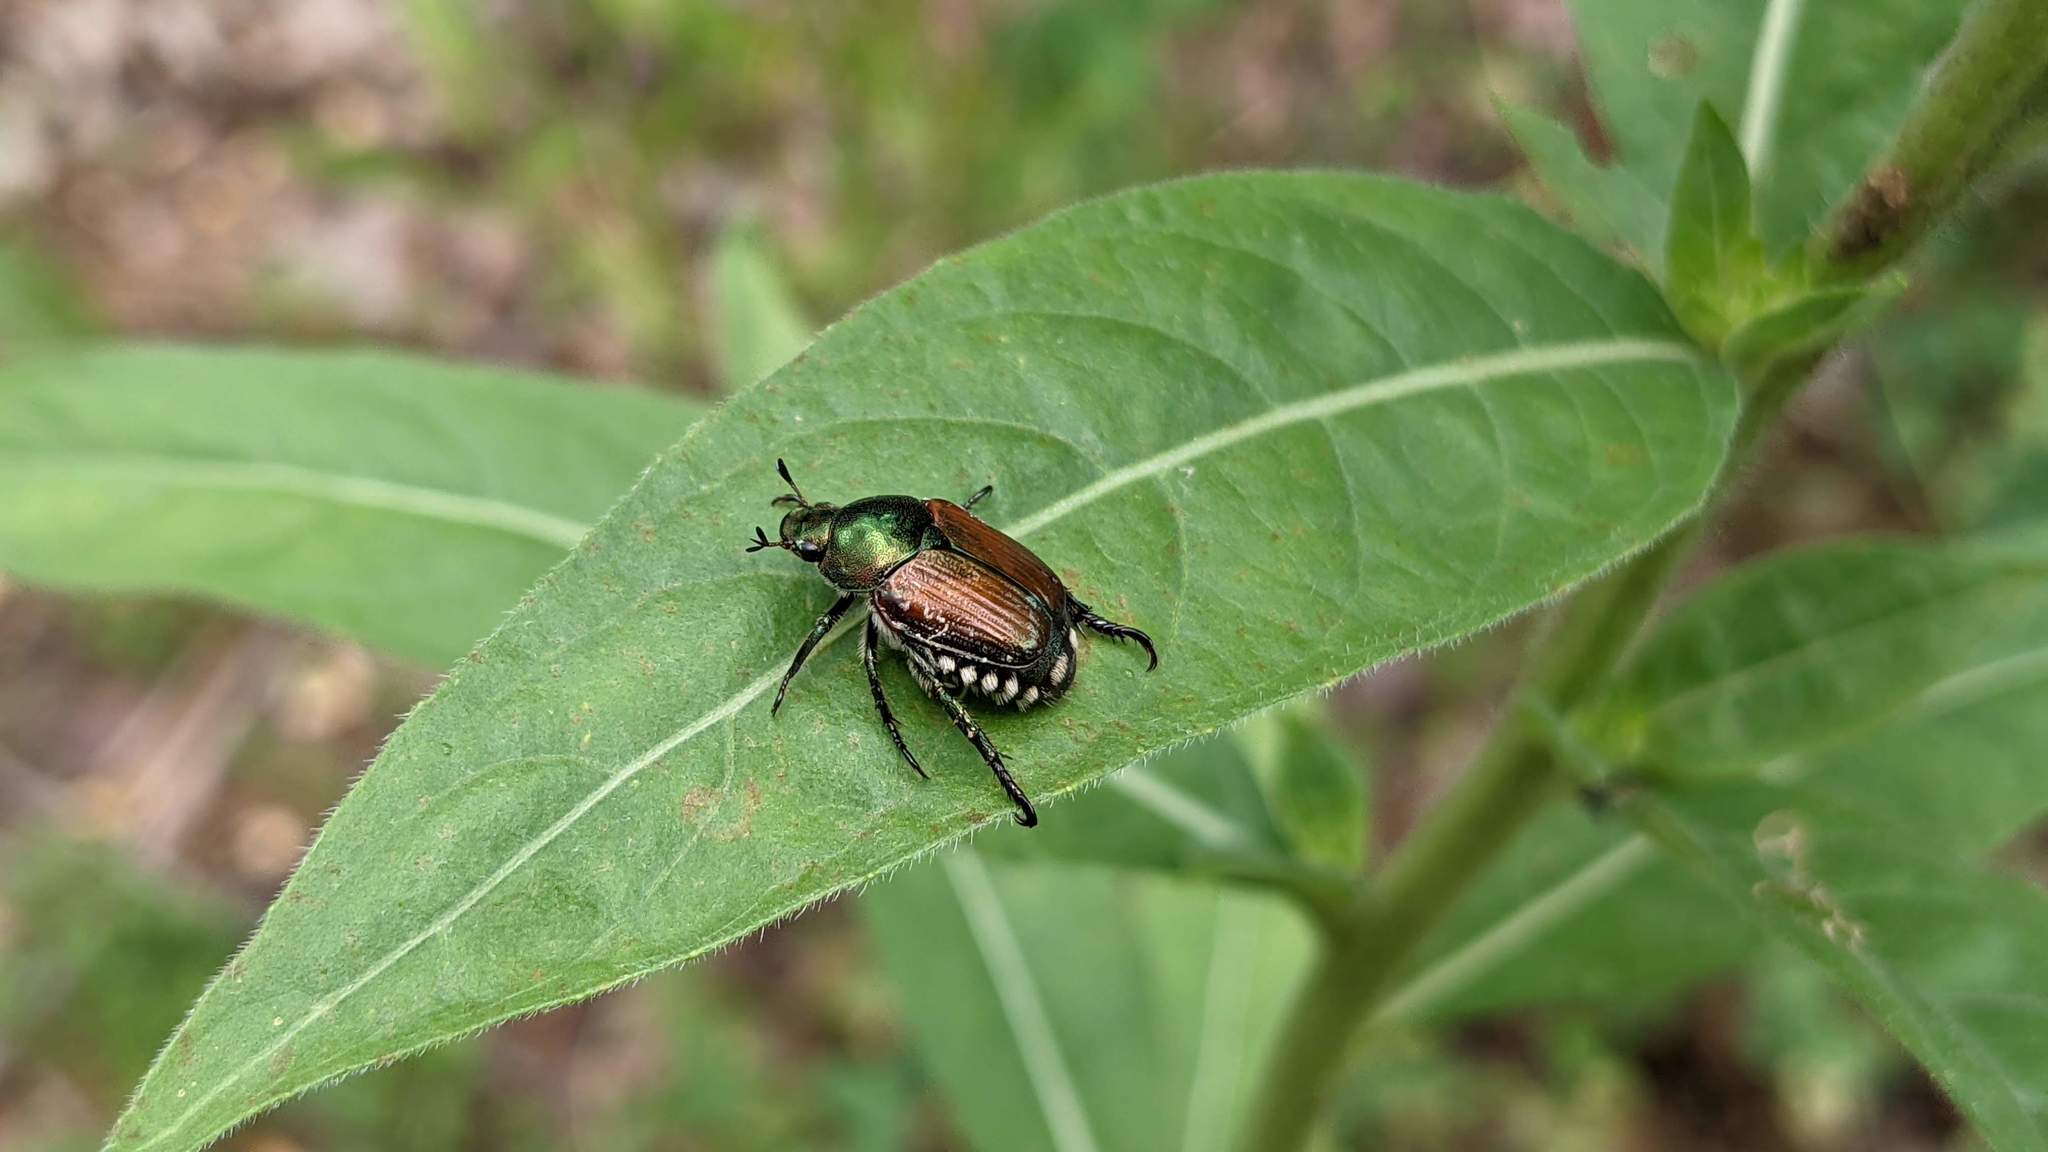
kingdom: Animalia
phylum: Arthropoda
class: Insecta
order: Coleoptera
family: Scarabaeidae
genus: Popillia
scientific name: Popillia japonica
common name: Japanese beetle
